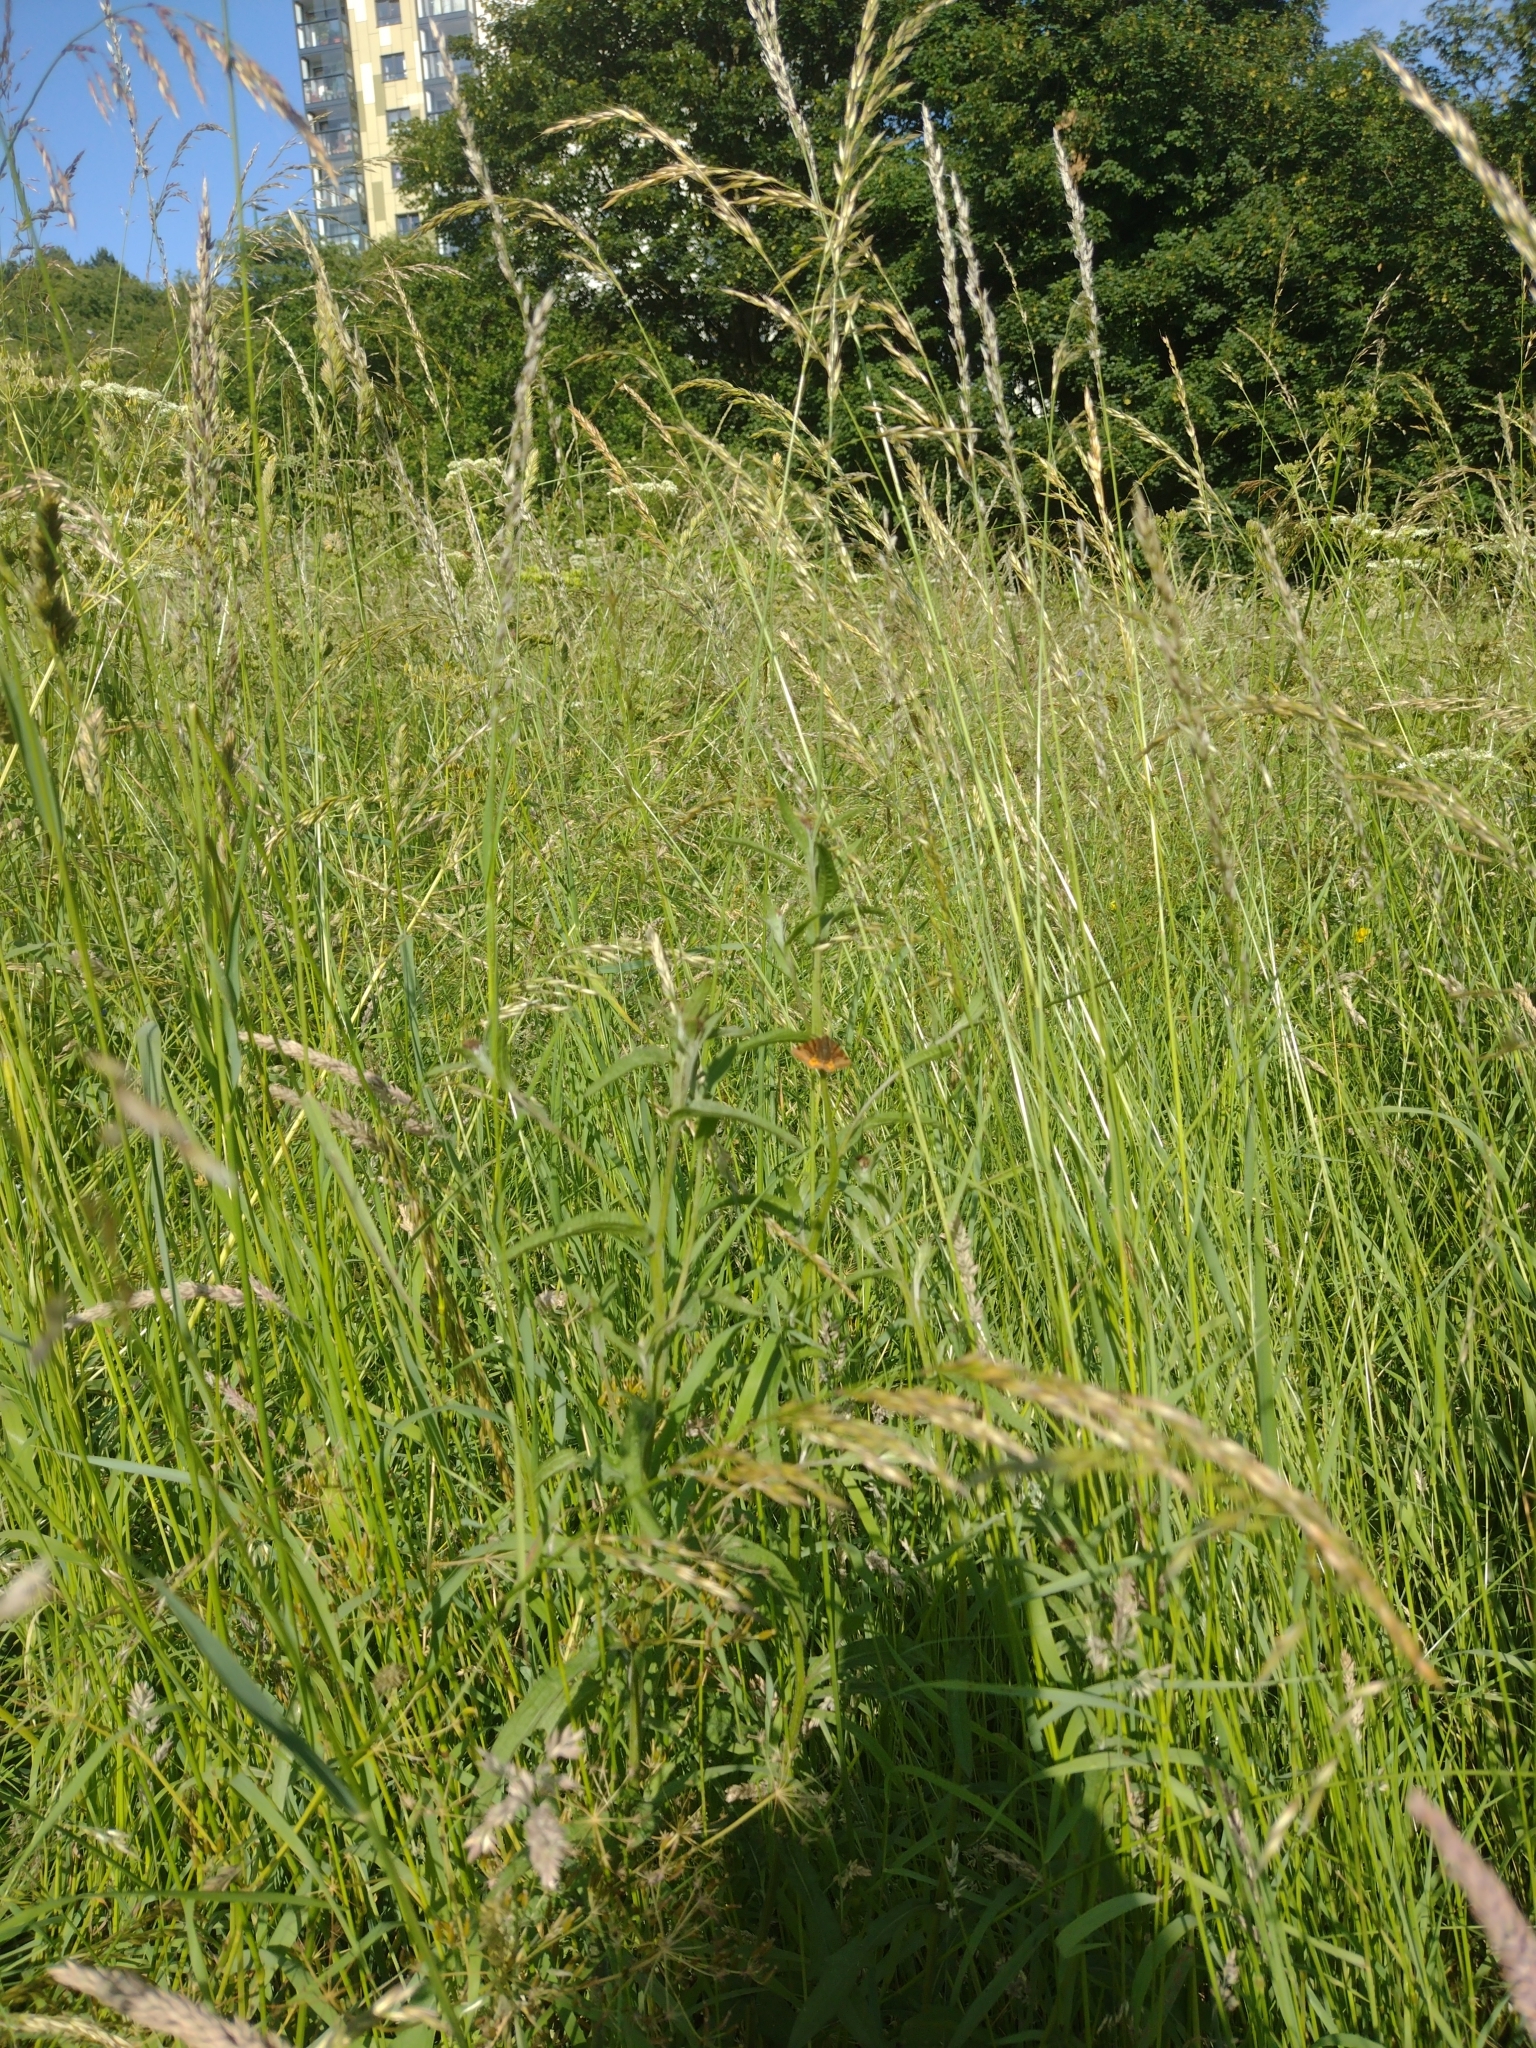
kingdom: Animalia
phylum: Arthropoda
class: Insecta
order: Lepidoptera
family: Erebidae
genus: Euclidia
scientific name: Euclidia glyphica
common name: Burnet companion
